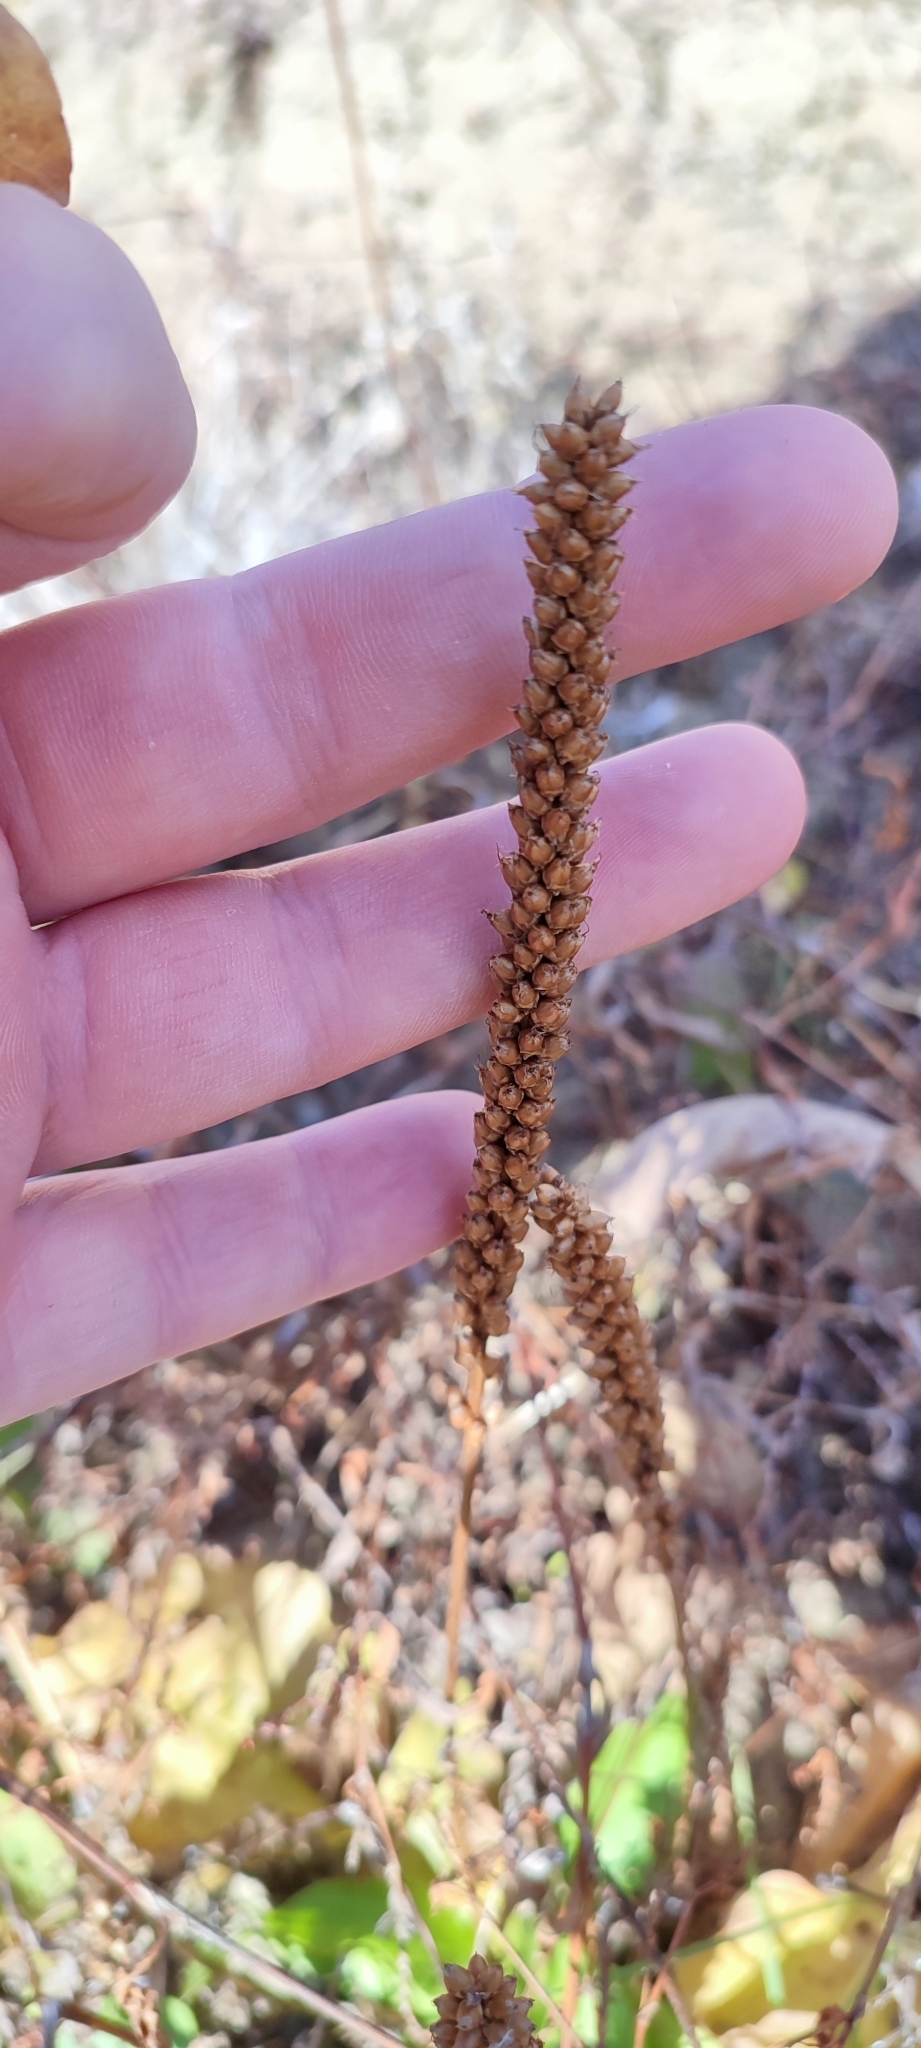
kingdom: Plantae
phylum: Tracheophyta
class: Magnoliopsida
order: Lamiales
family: Plantaginaceae
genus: Plantago
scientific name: Plantago uliginosa
